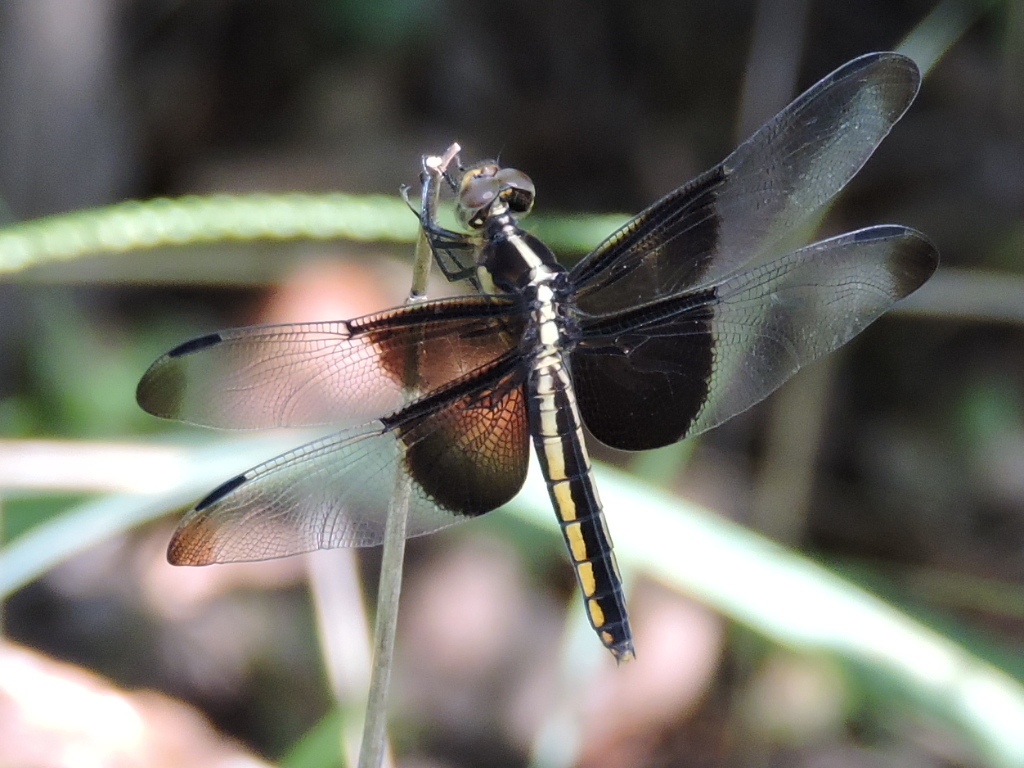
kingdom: Animalia
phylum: Arthropoda
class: Insecta
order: Odonata
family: Libellulidae
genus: Libellula
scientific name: Libellula luctuosa
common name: Widow skimmer
